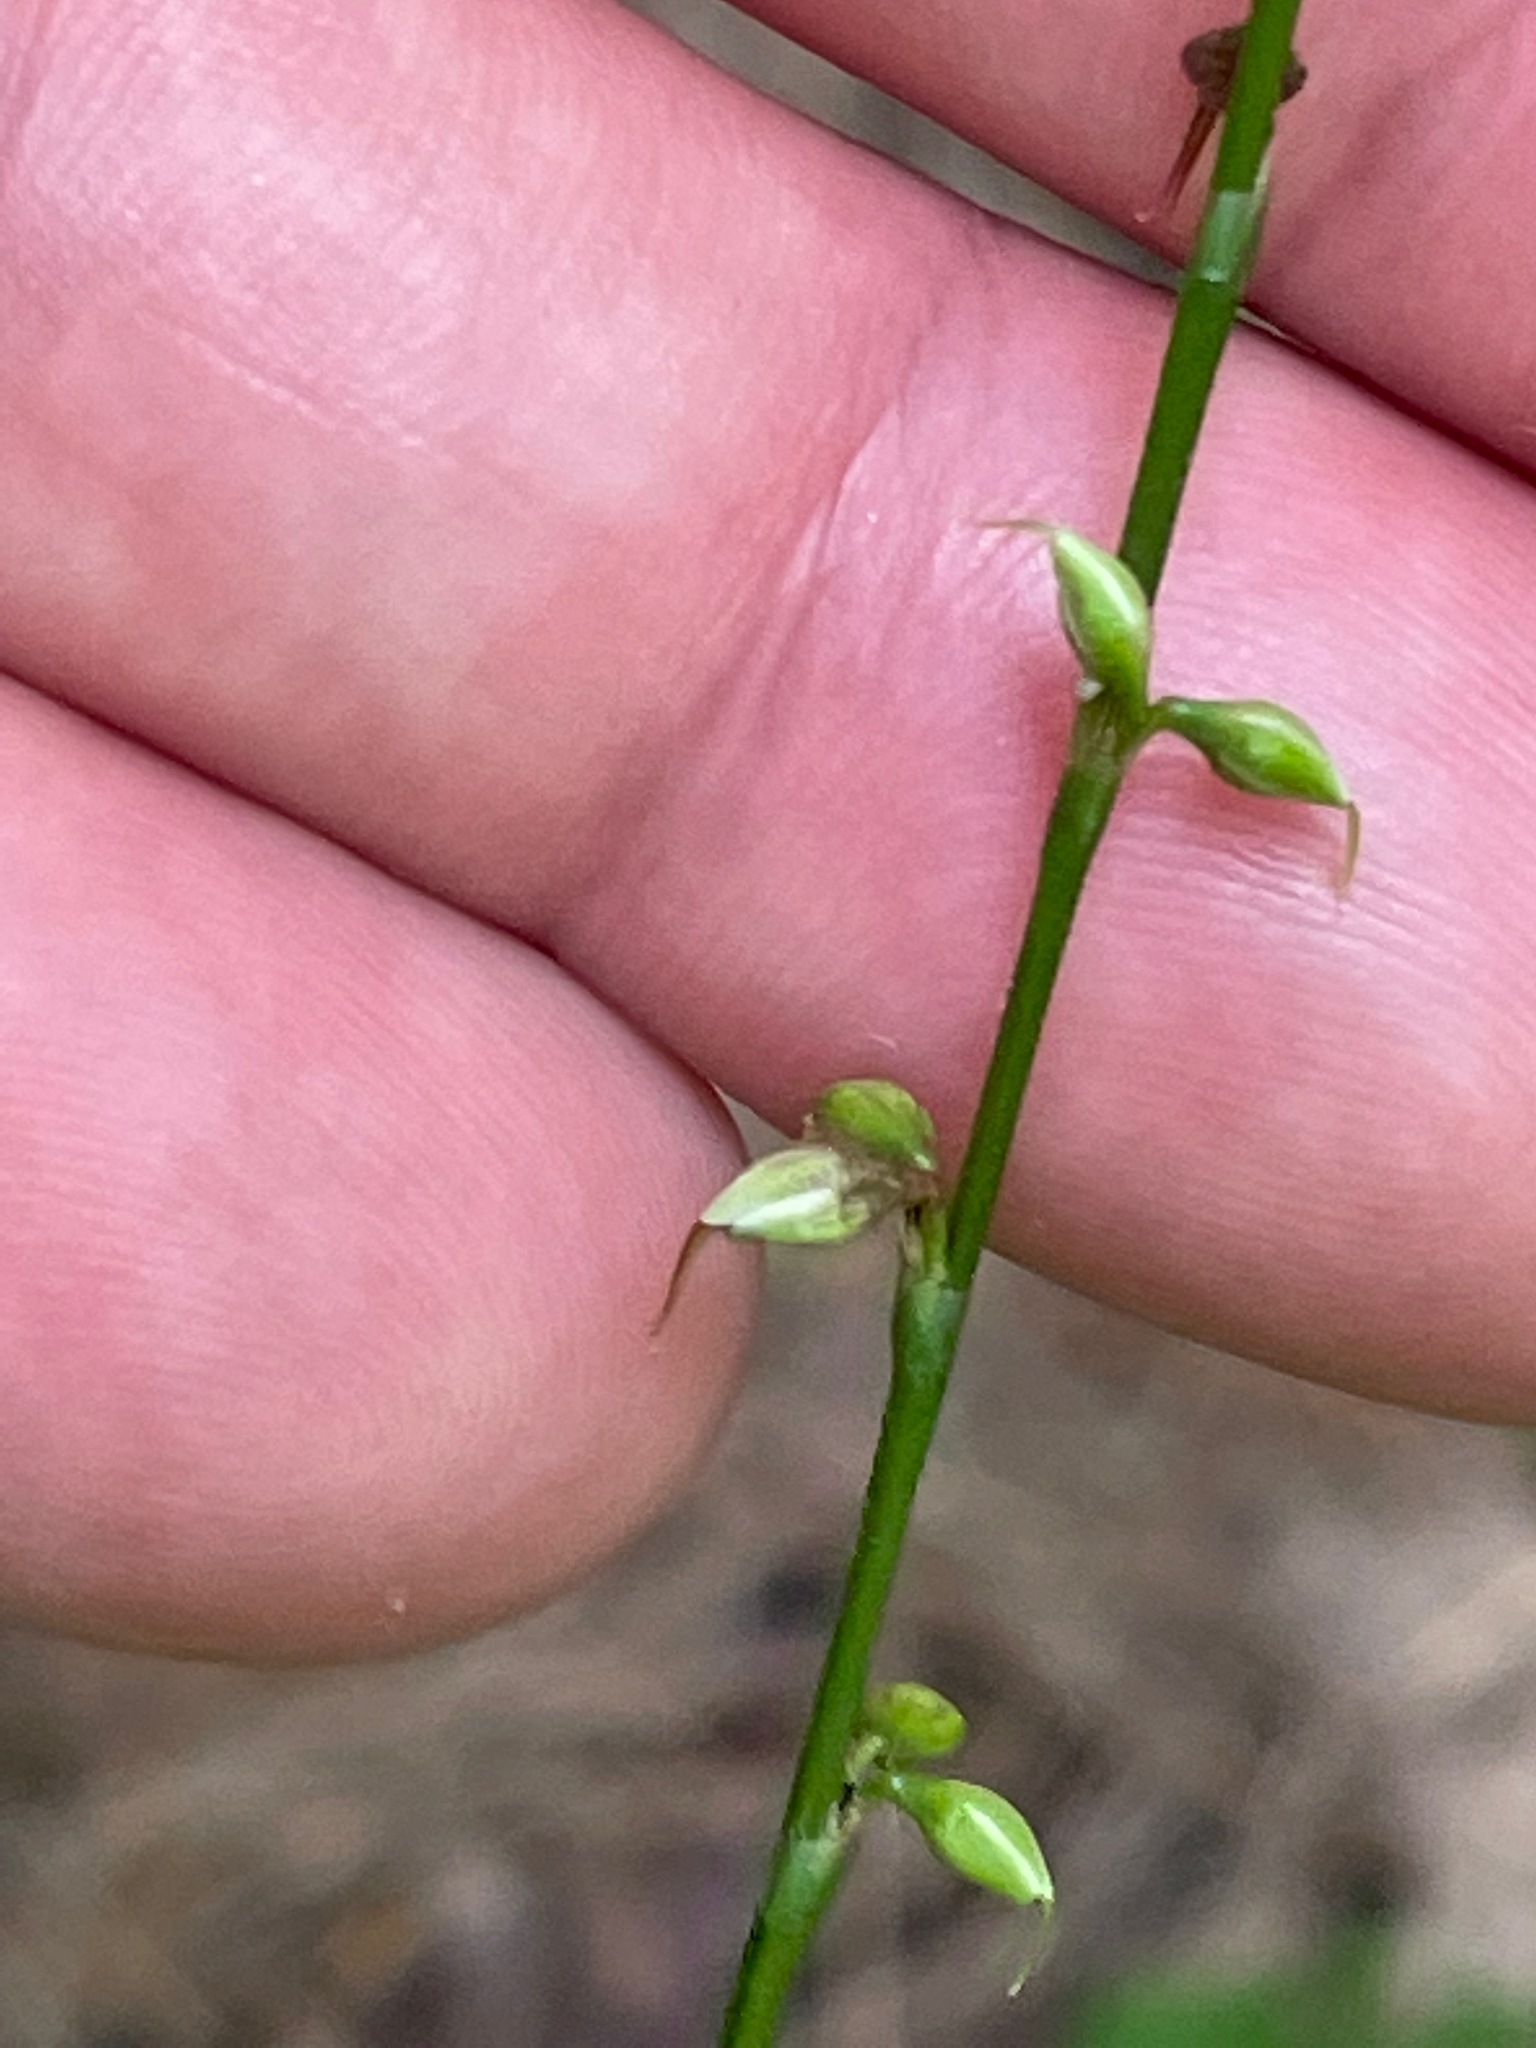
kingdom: Plantae
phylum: Tracheophyta
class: Magnoliopsida
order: Caryophyllales
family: Polygonaceae
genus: Persicaria
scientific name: Persicaria virginiana
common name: Jumpseed
